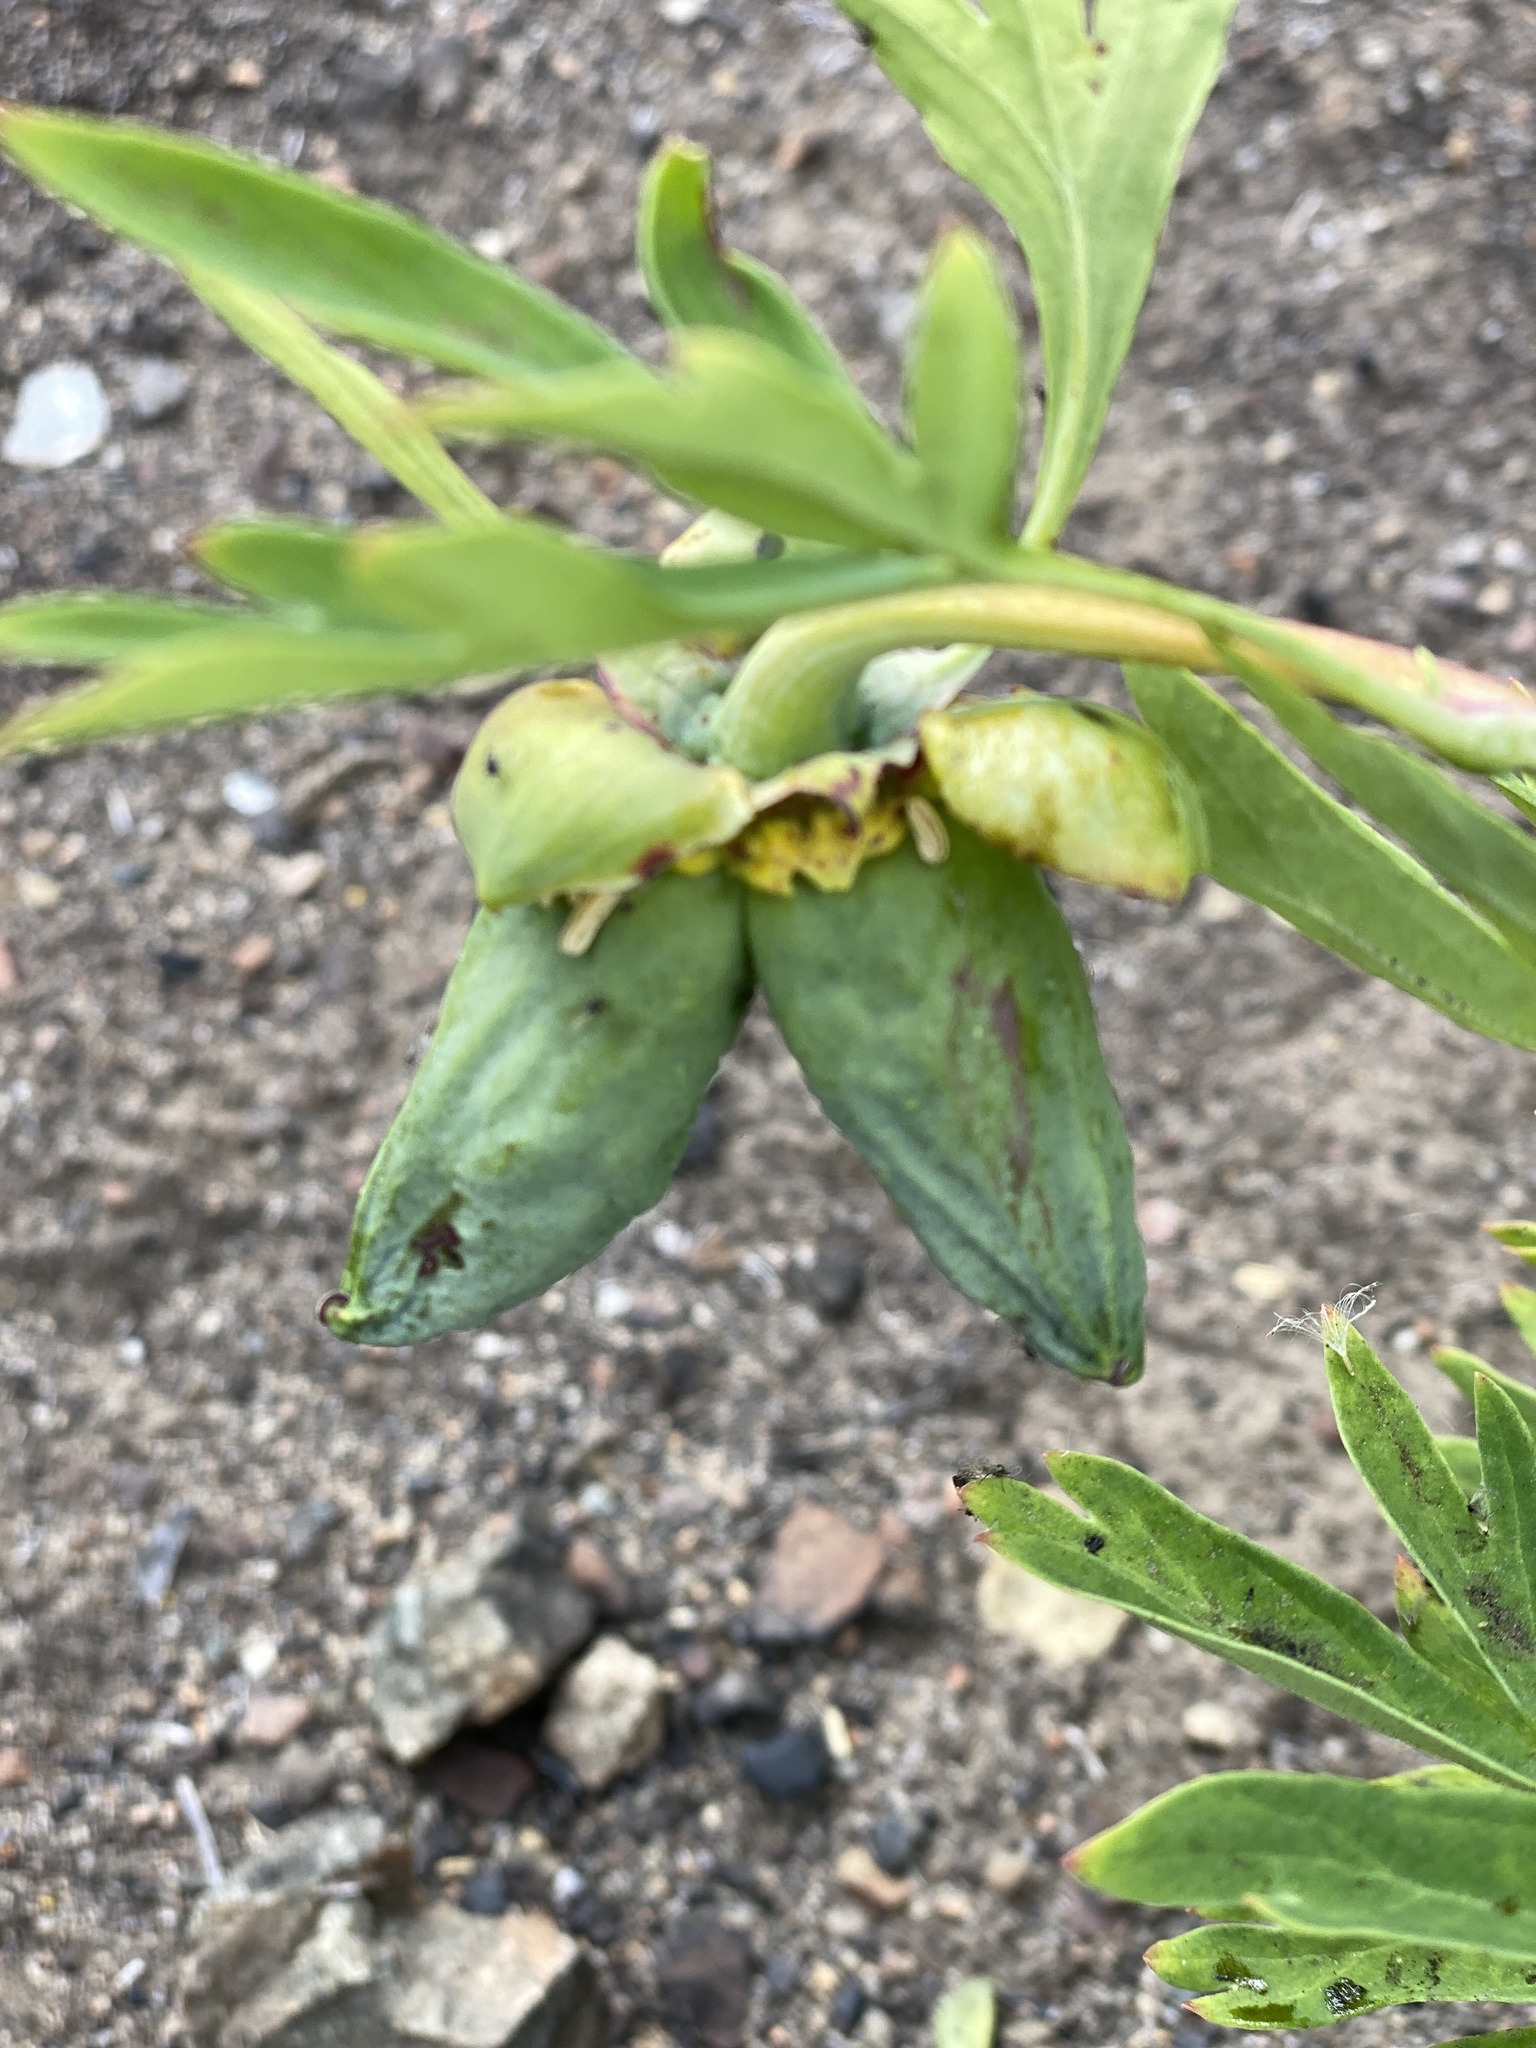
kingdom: Plantae
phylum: Tracheophyta
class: Magnoliopsida
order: Saxifragales
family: Paeoniaceae
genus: Paeonia
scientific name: Paeonia californica
